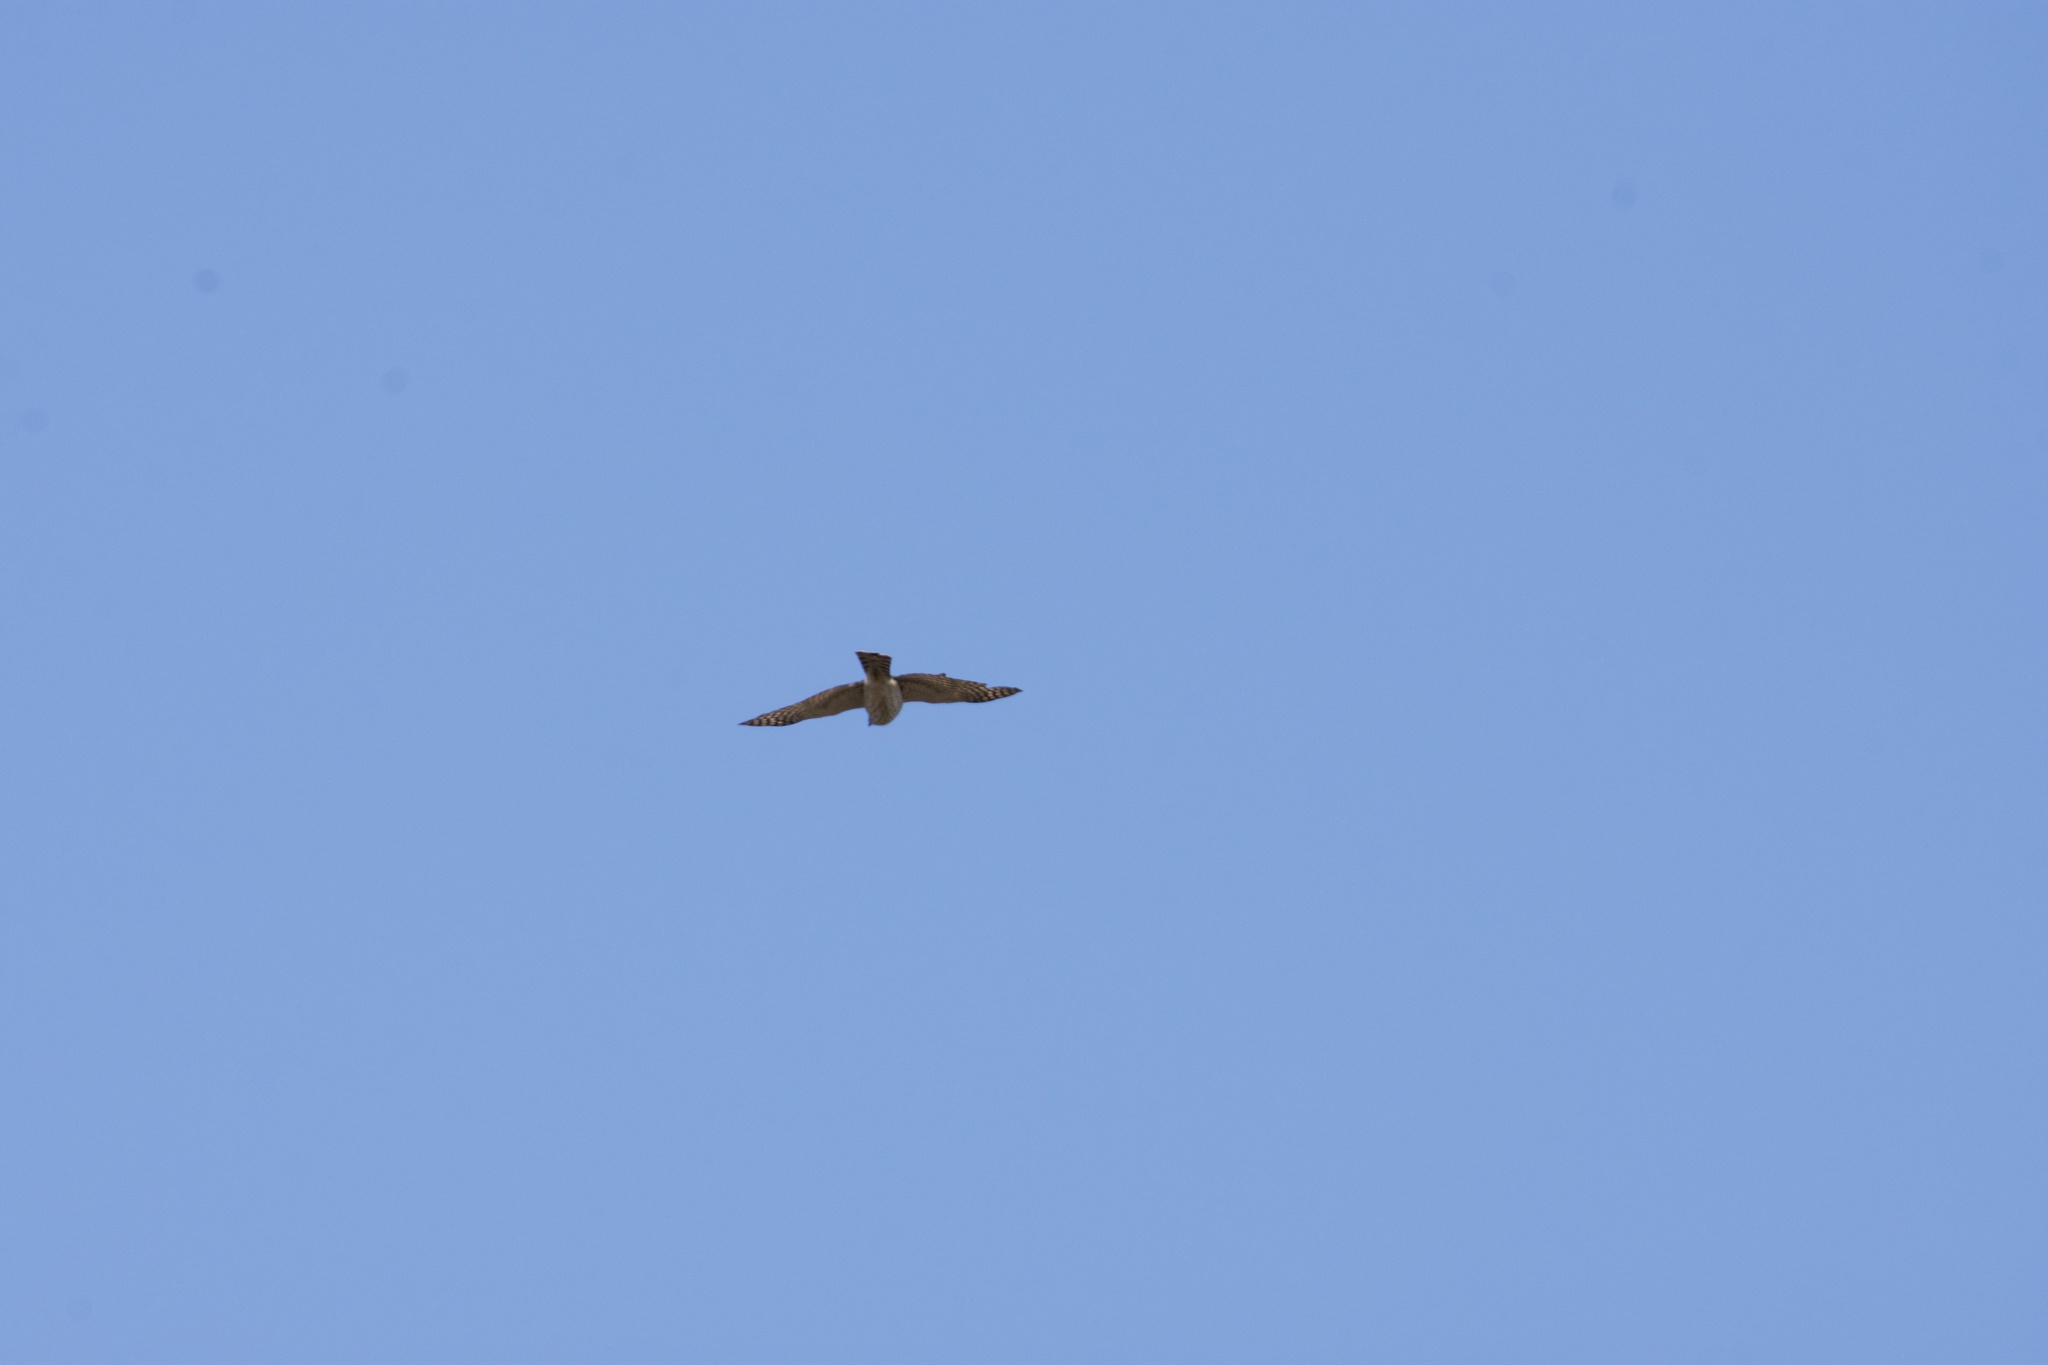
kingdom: Animalia
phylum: Chordata
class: Aves
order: Accipitriformes
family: Accipitridae
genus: Accipiter
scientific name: Accipiter striatus
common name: Sharp-shinned hawk
